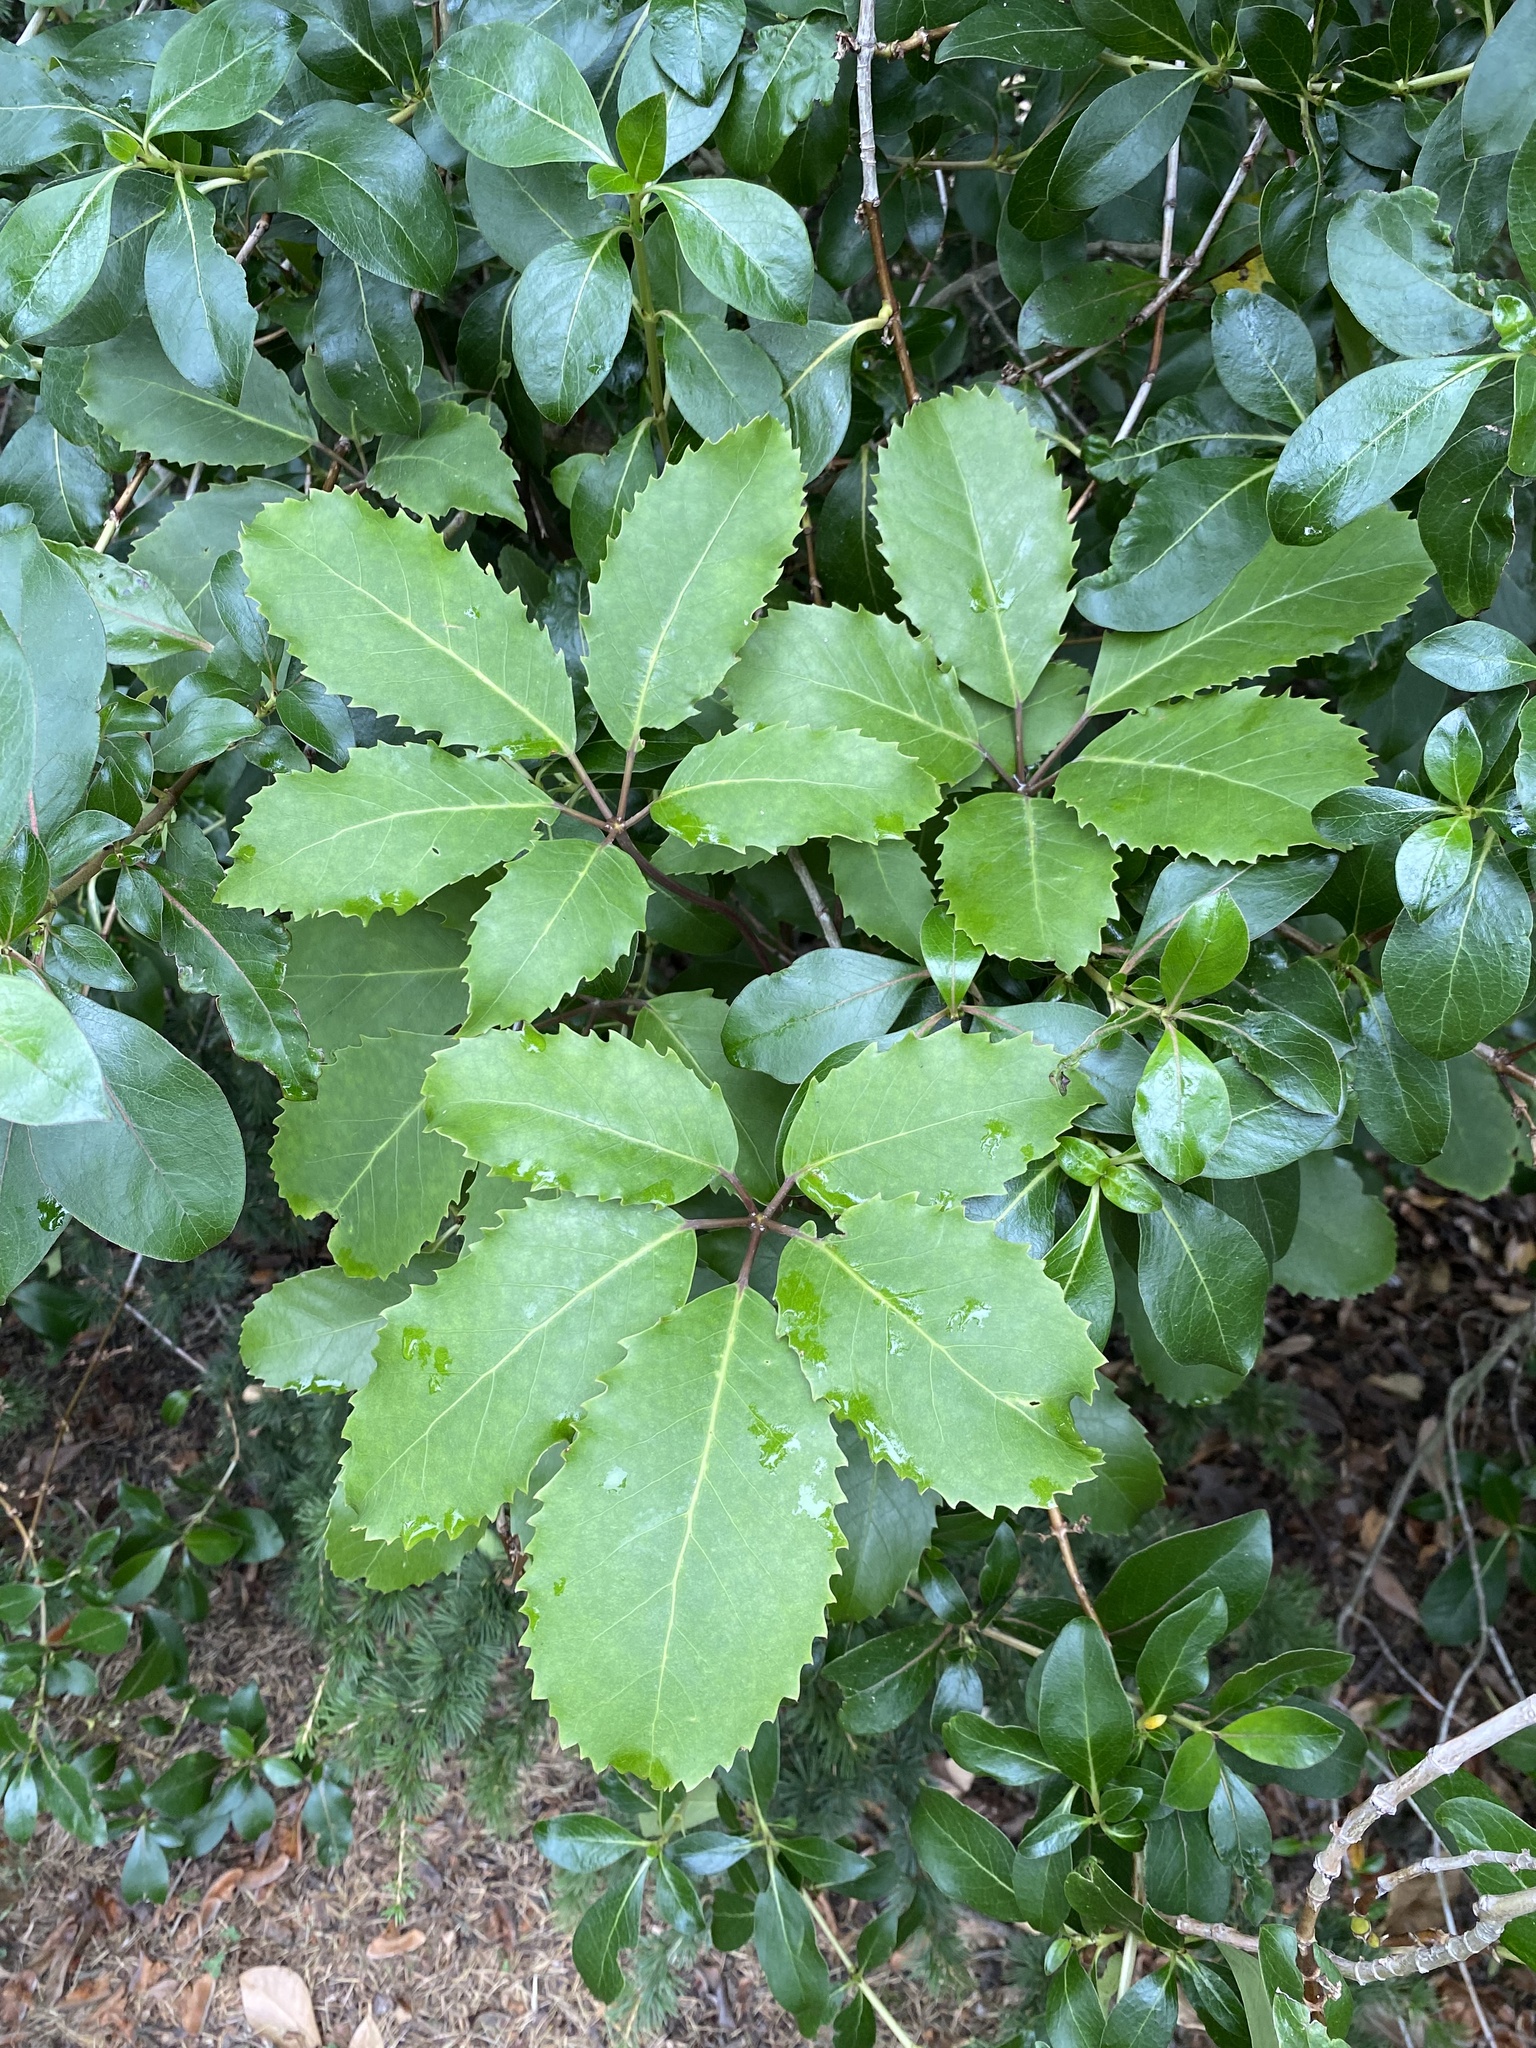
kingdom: Plantae
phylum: Tracheophyta
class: Magnoliopsida
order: Apiales
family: Araliaceae
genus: Neopanax
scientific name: Neopanax arboreus
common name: Five-fingers
